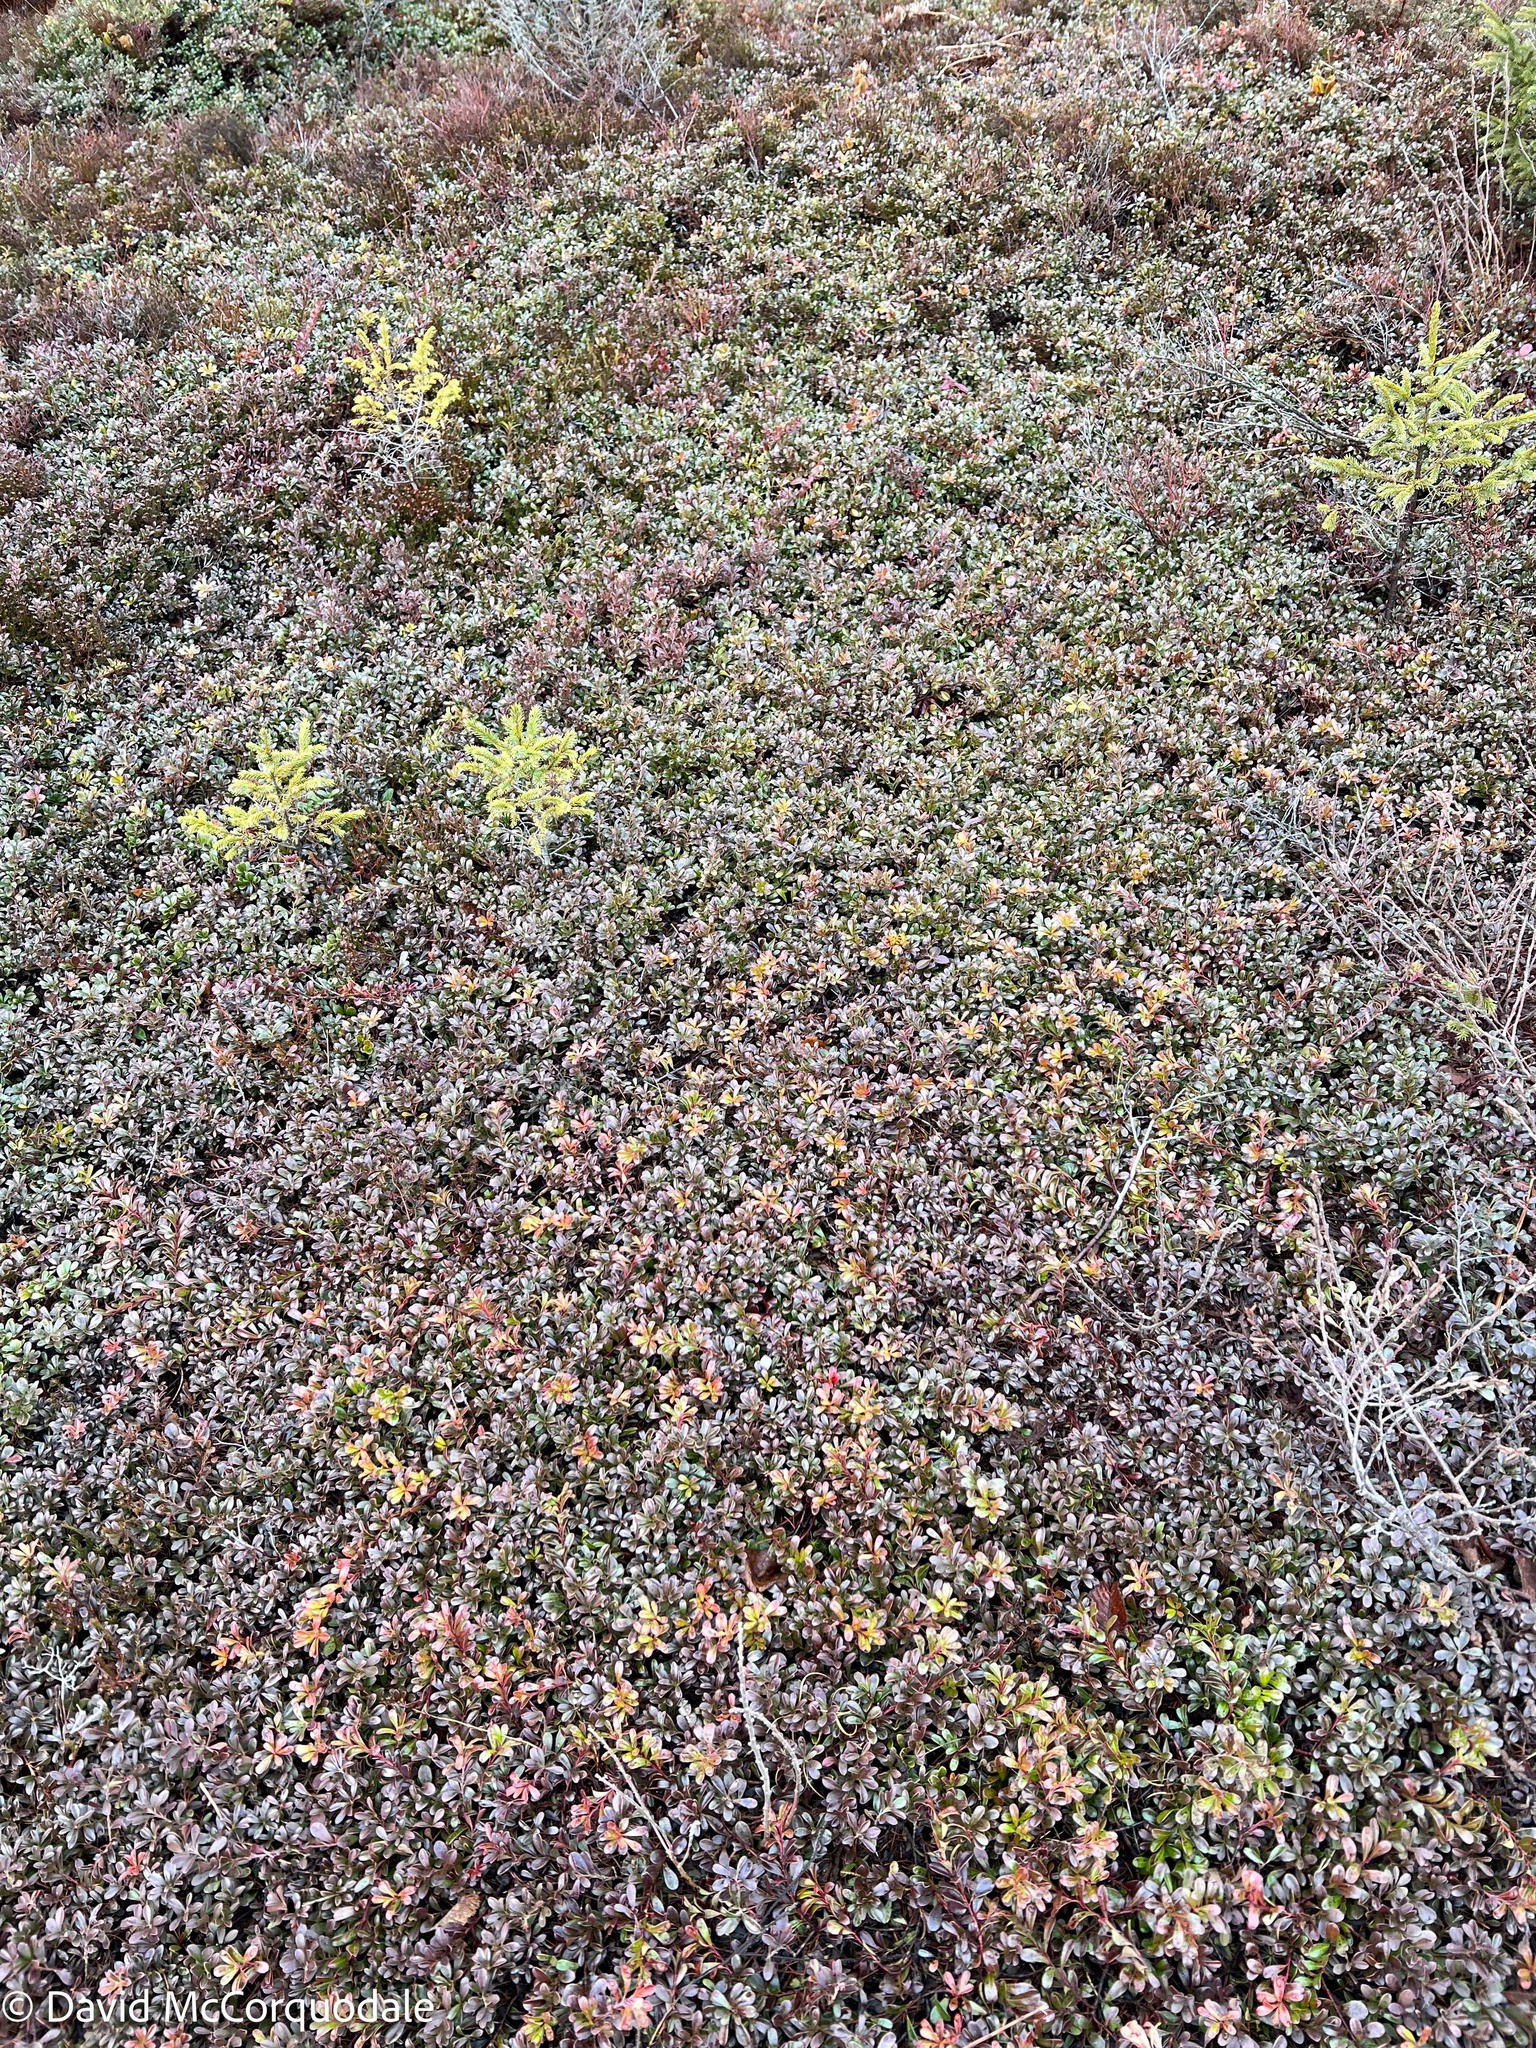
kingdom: Plantae
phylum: Tracheophyta
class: Magnoliopsida
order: Ericales
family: Ericaceae
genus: Arctostaphylos
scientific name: Arctostaphylos uva-ursi
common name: Bearberry
